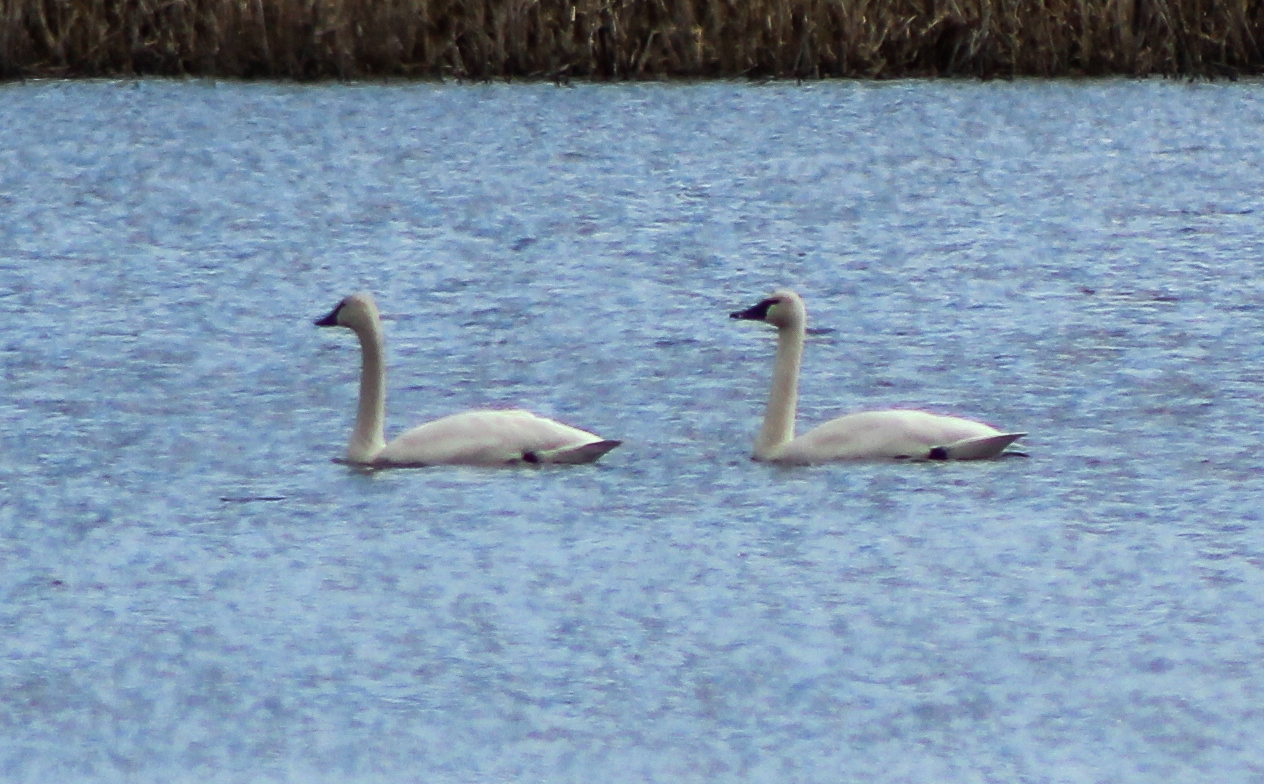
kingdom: Animalia
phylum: Chordata
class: Aves
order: Anseriformes
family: Anatidae
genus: Cygnus
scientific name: Cygnus columbianus
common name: Tundra swan
